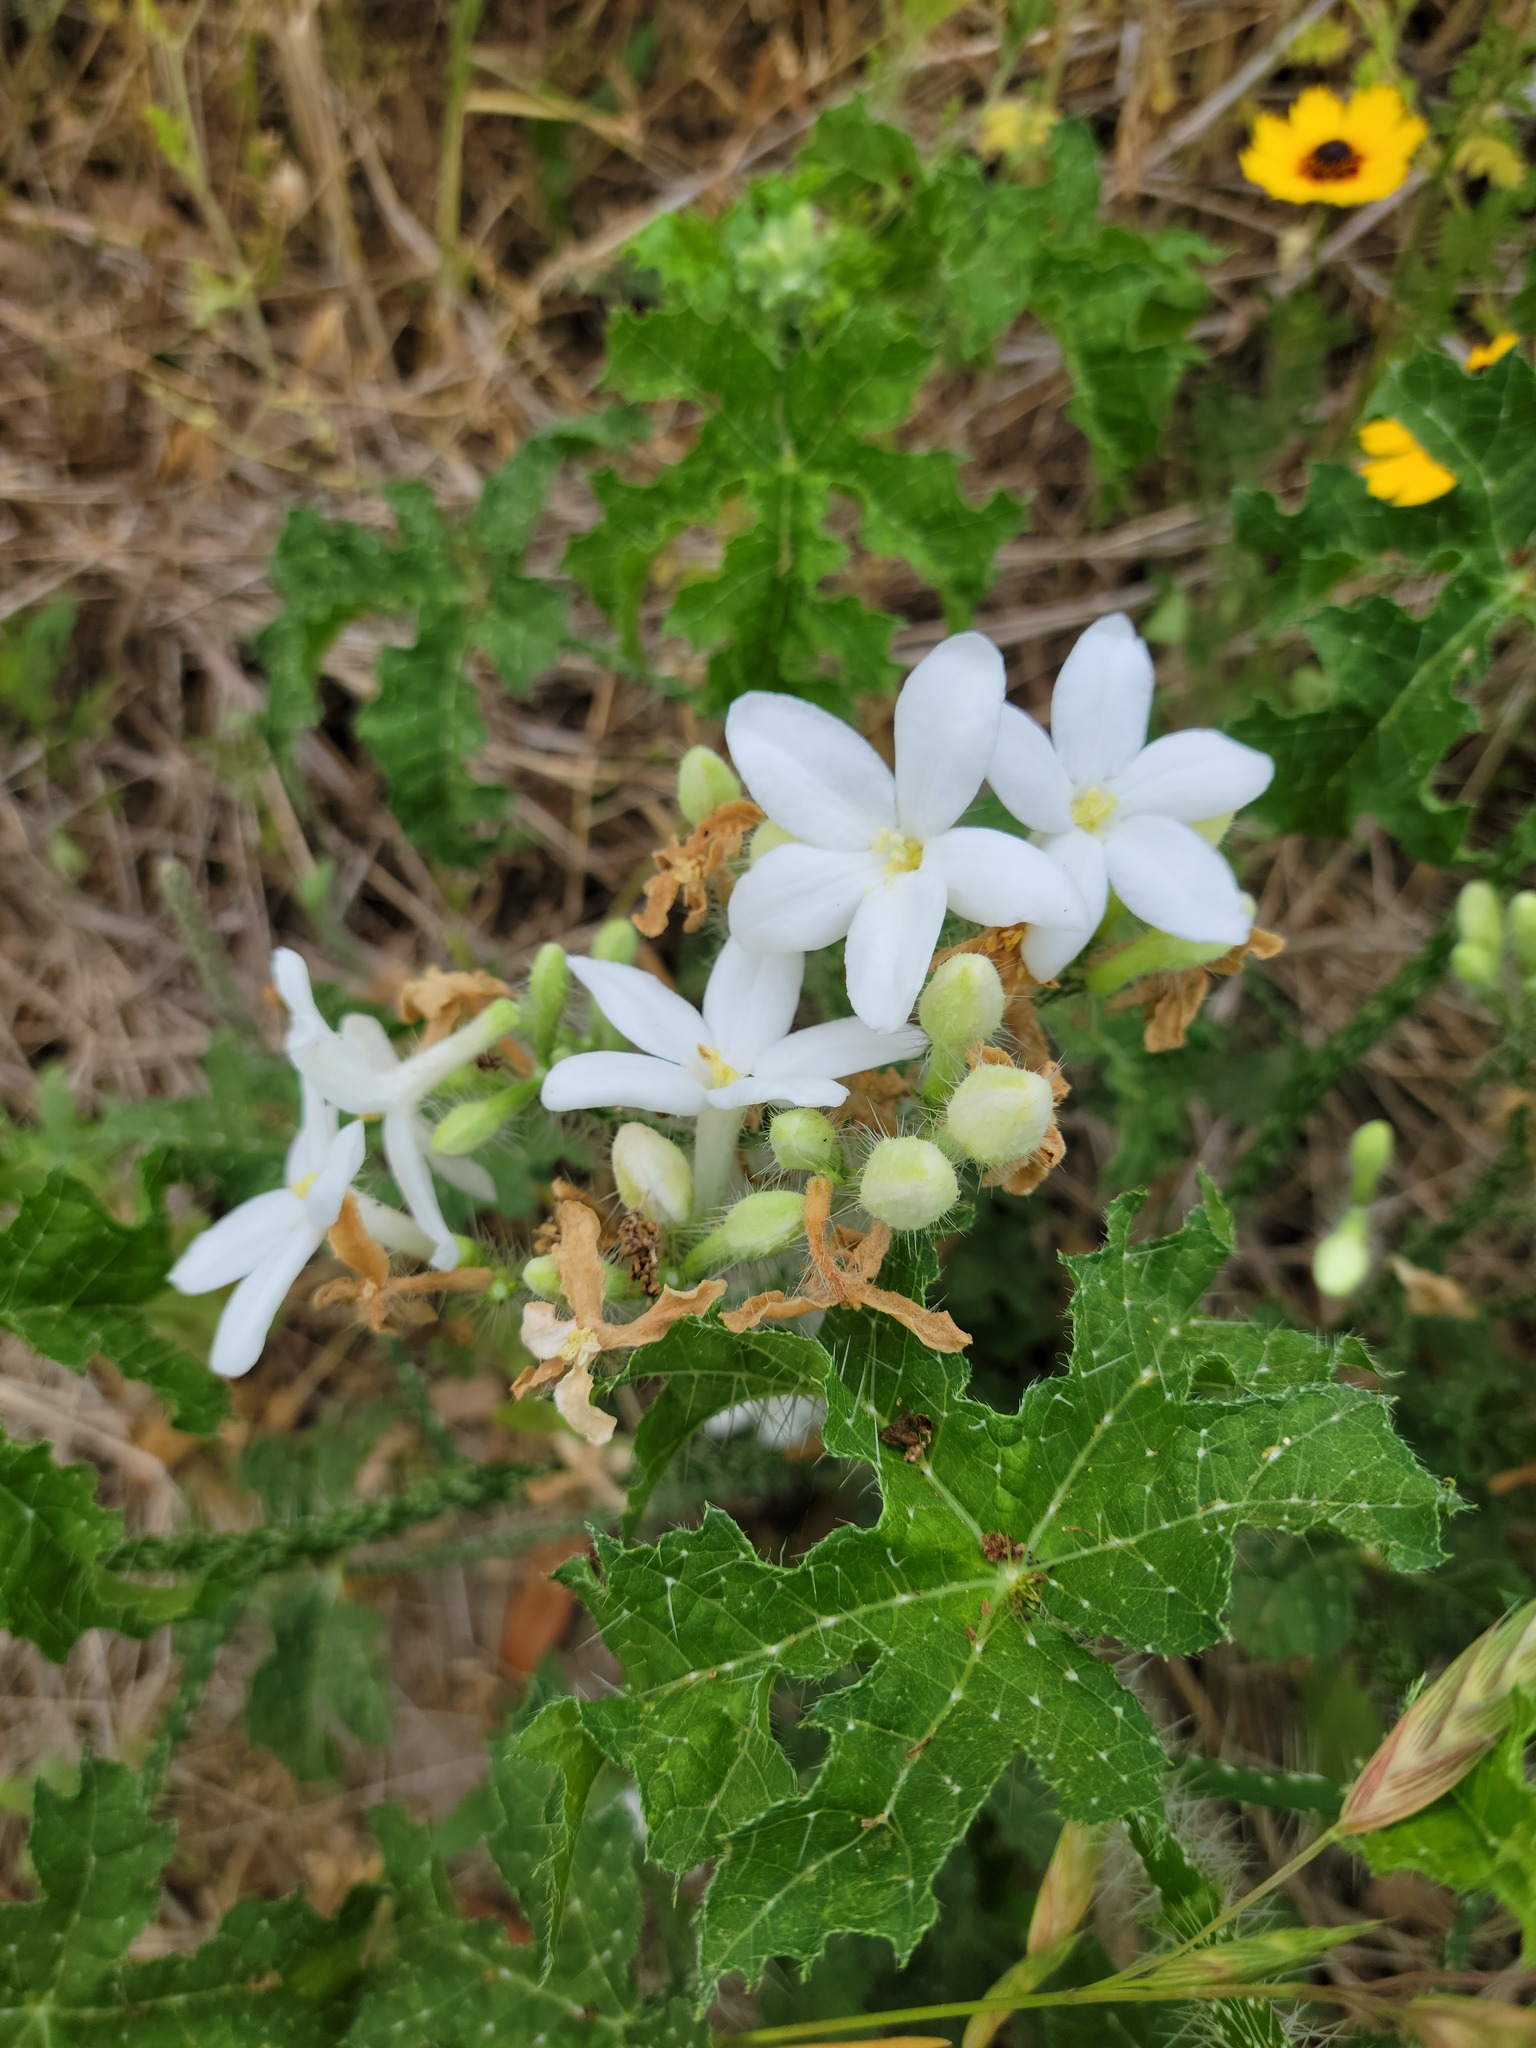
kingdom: Plantae
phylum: Tracheophyta
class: Magnoliopsida
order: Malpighiales
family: Euphorbiaceae
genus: Cnidoscolus
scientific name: Cnidoscolus texanus
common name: Texas bull-nettle
